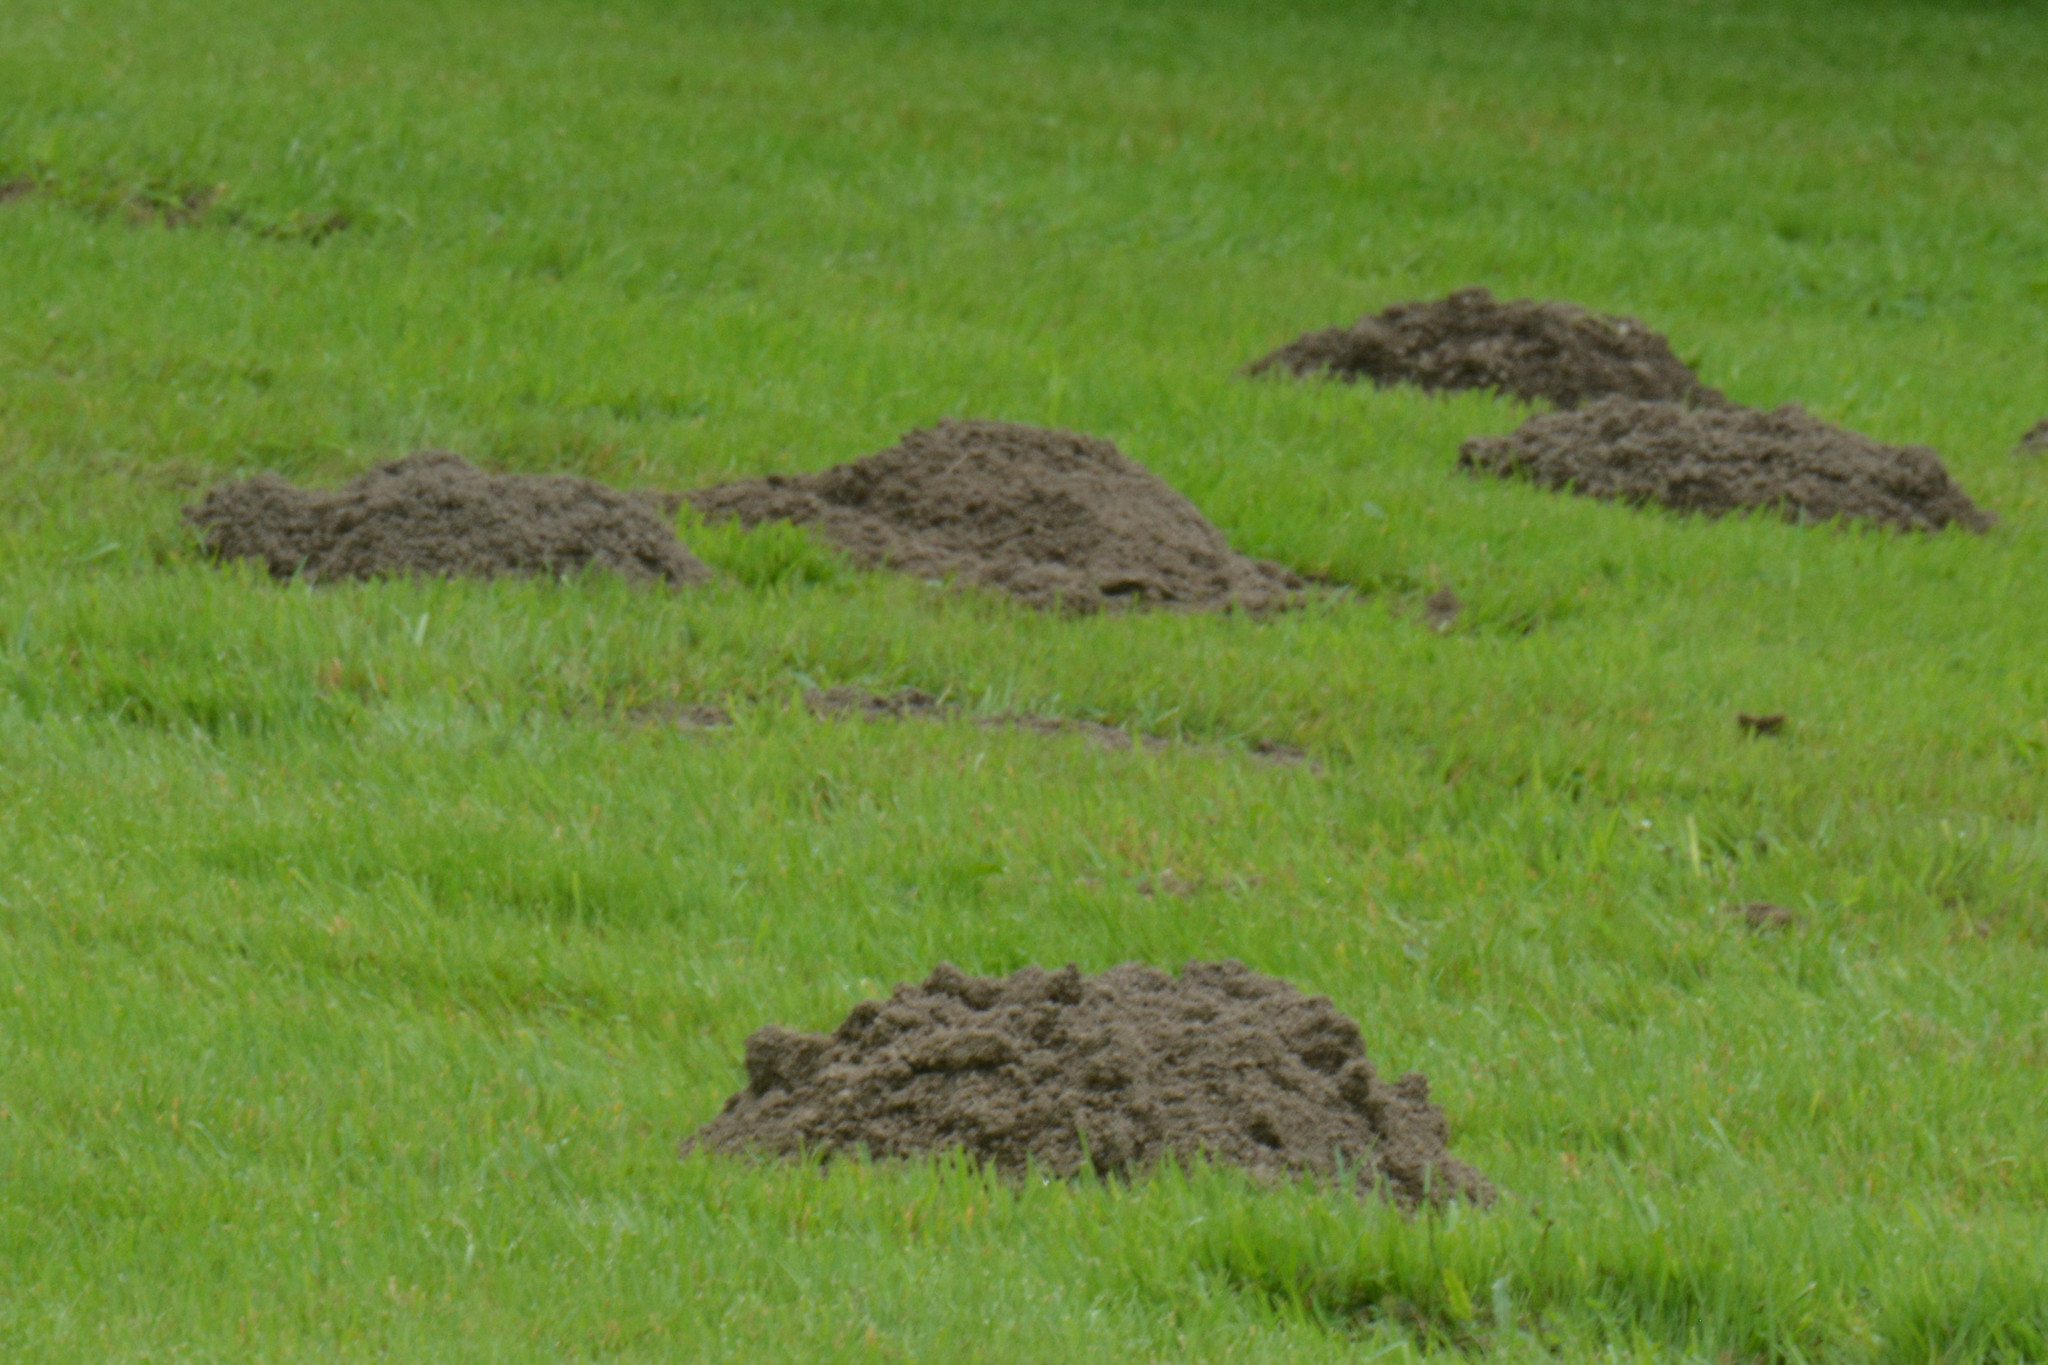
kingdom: Animalia
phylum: Chordata
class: Mammalia
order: Soricomorpha
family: Talpidae
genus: Talpa
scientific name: Talpa europaea
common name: European mole
